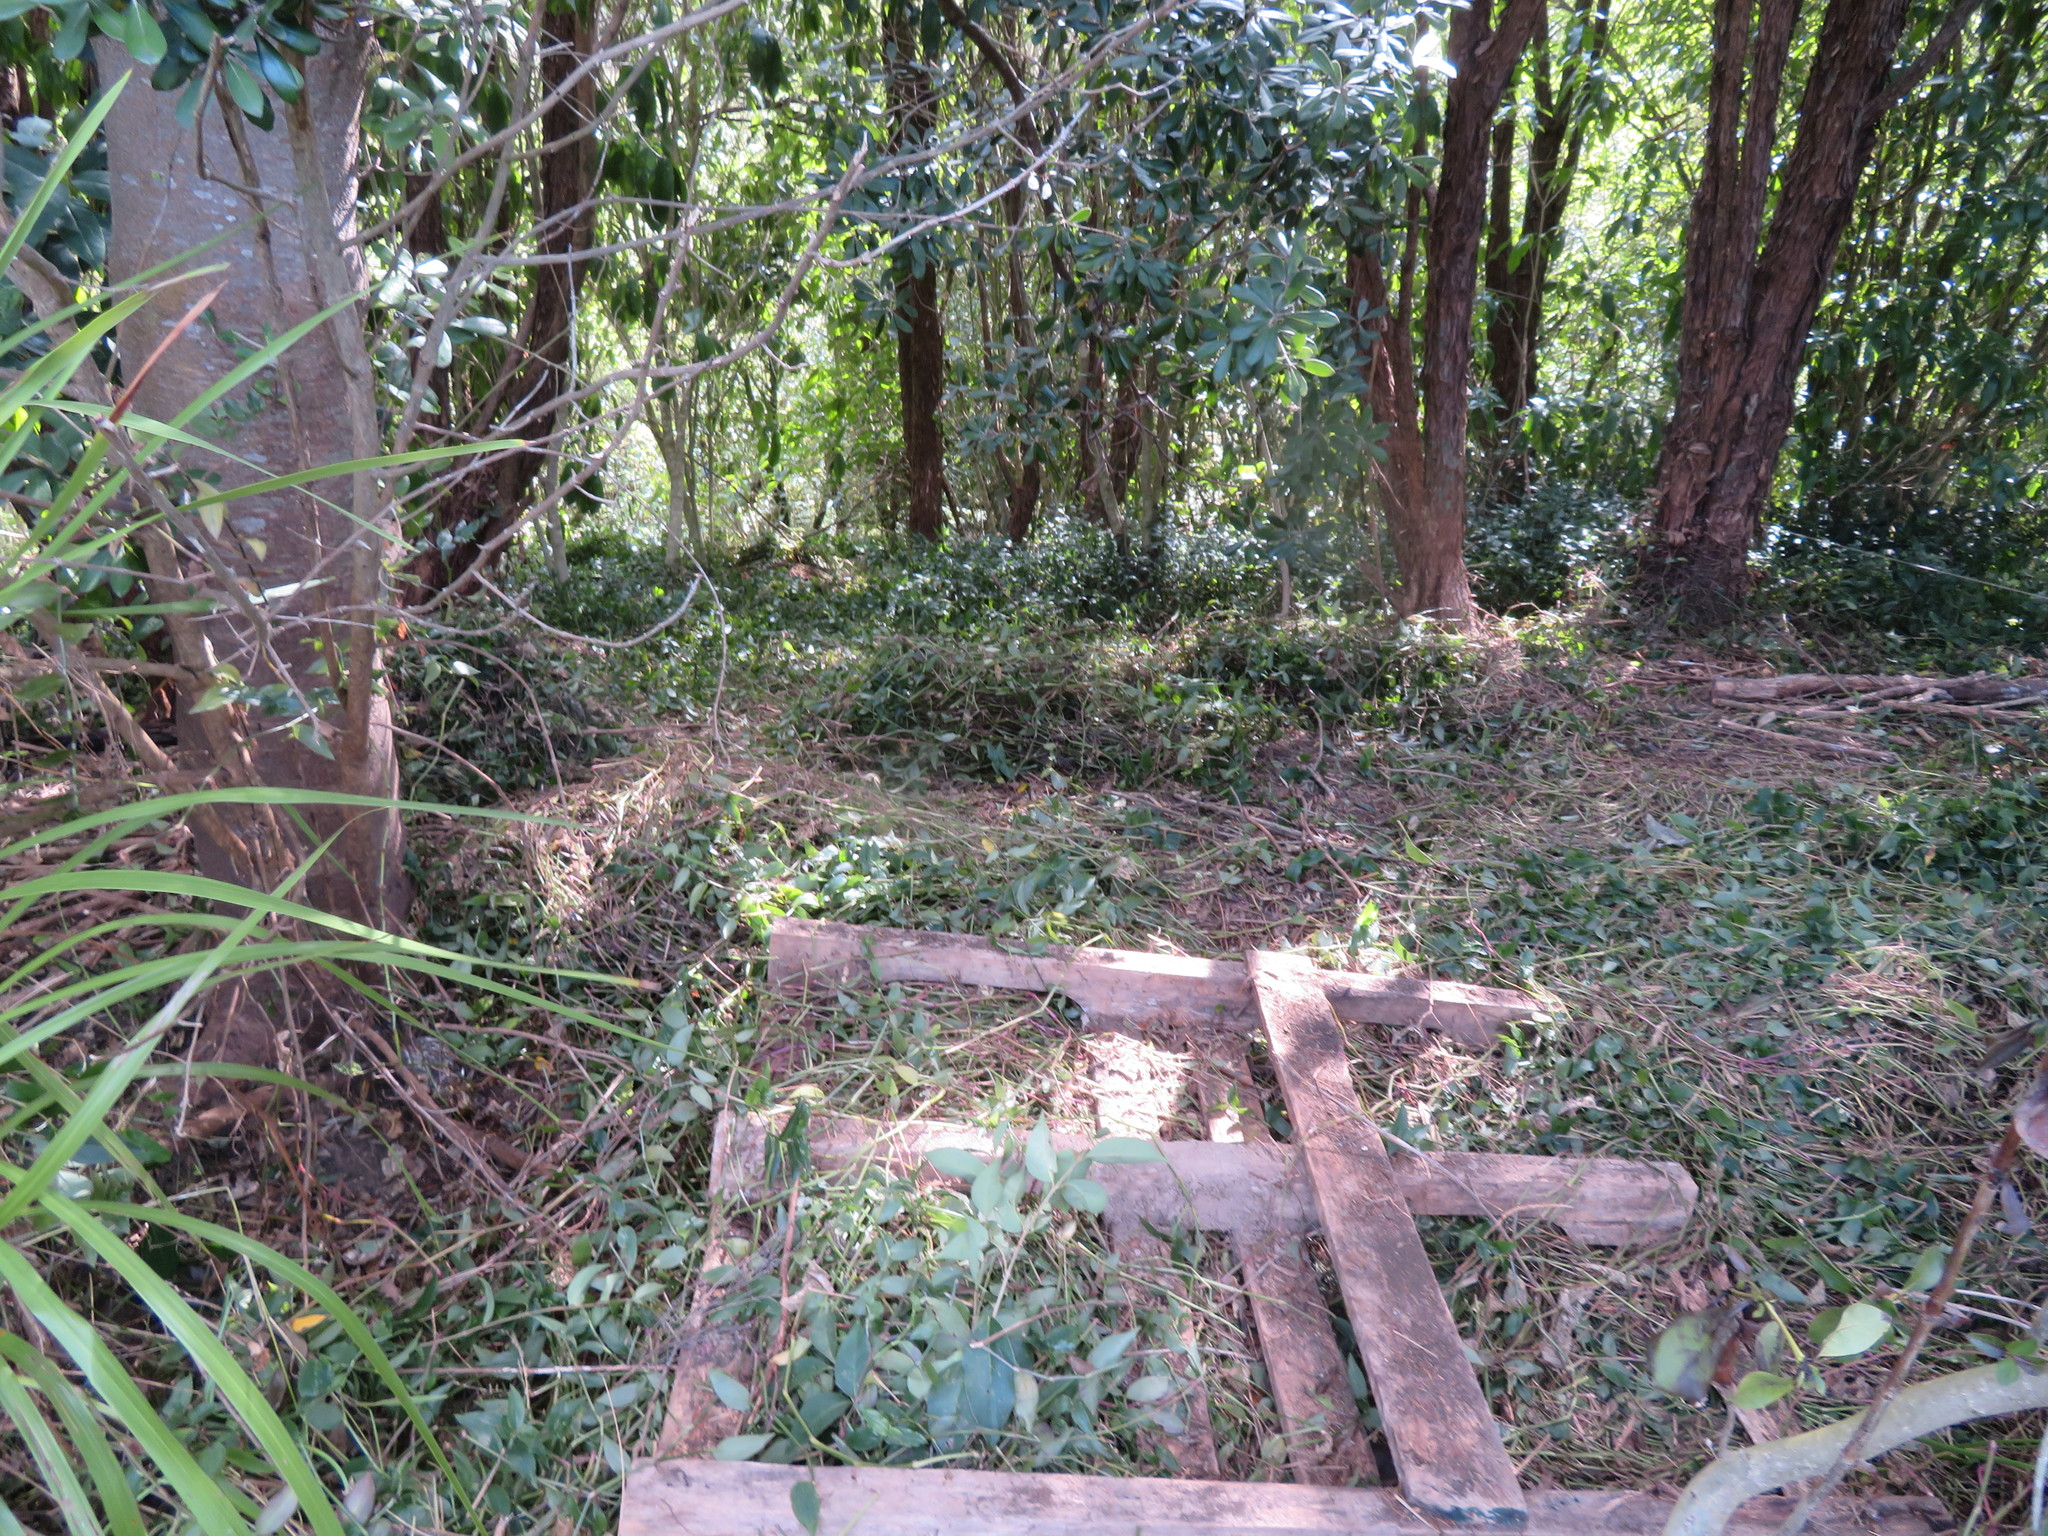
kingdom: Plantae
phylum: Tracheophyta
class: Liliopsida
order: Commelinales
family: Commelinaceae
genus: Tradescantia
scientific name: Tradescantia fluminensis
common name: Wandering-jew
